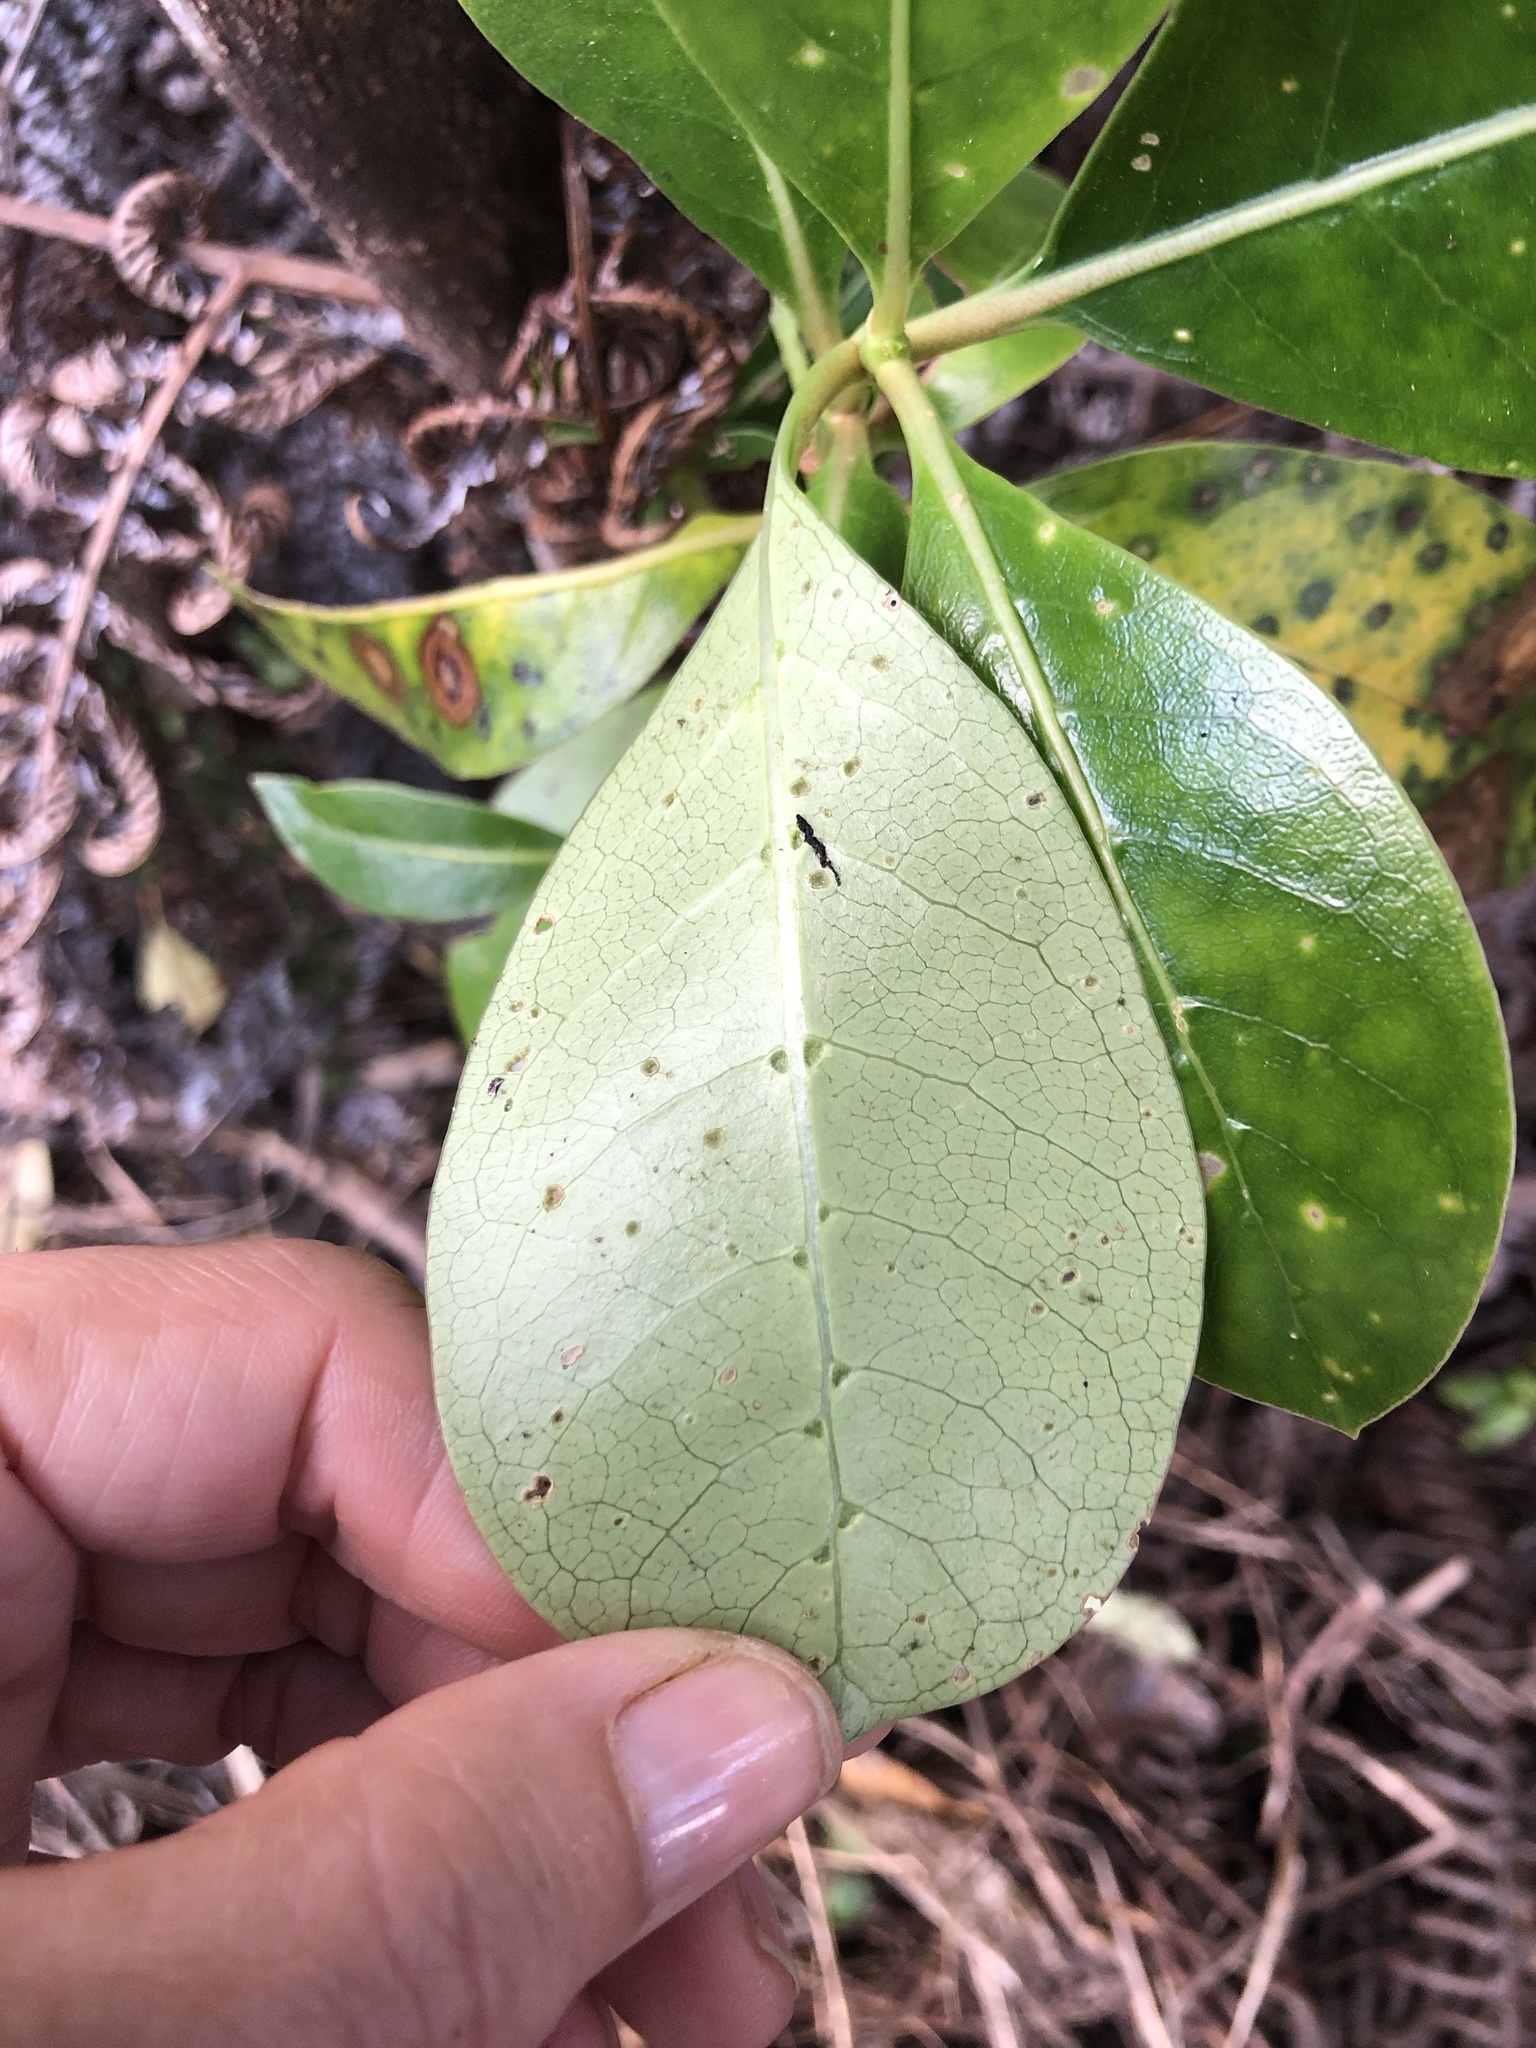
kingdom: Plantae
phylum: Tracheophyta
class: Magnoliopsida
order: Gentianales
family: Rubiaceae
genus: Coprosma
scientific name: Coprosma lucida
